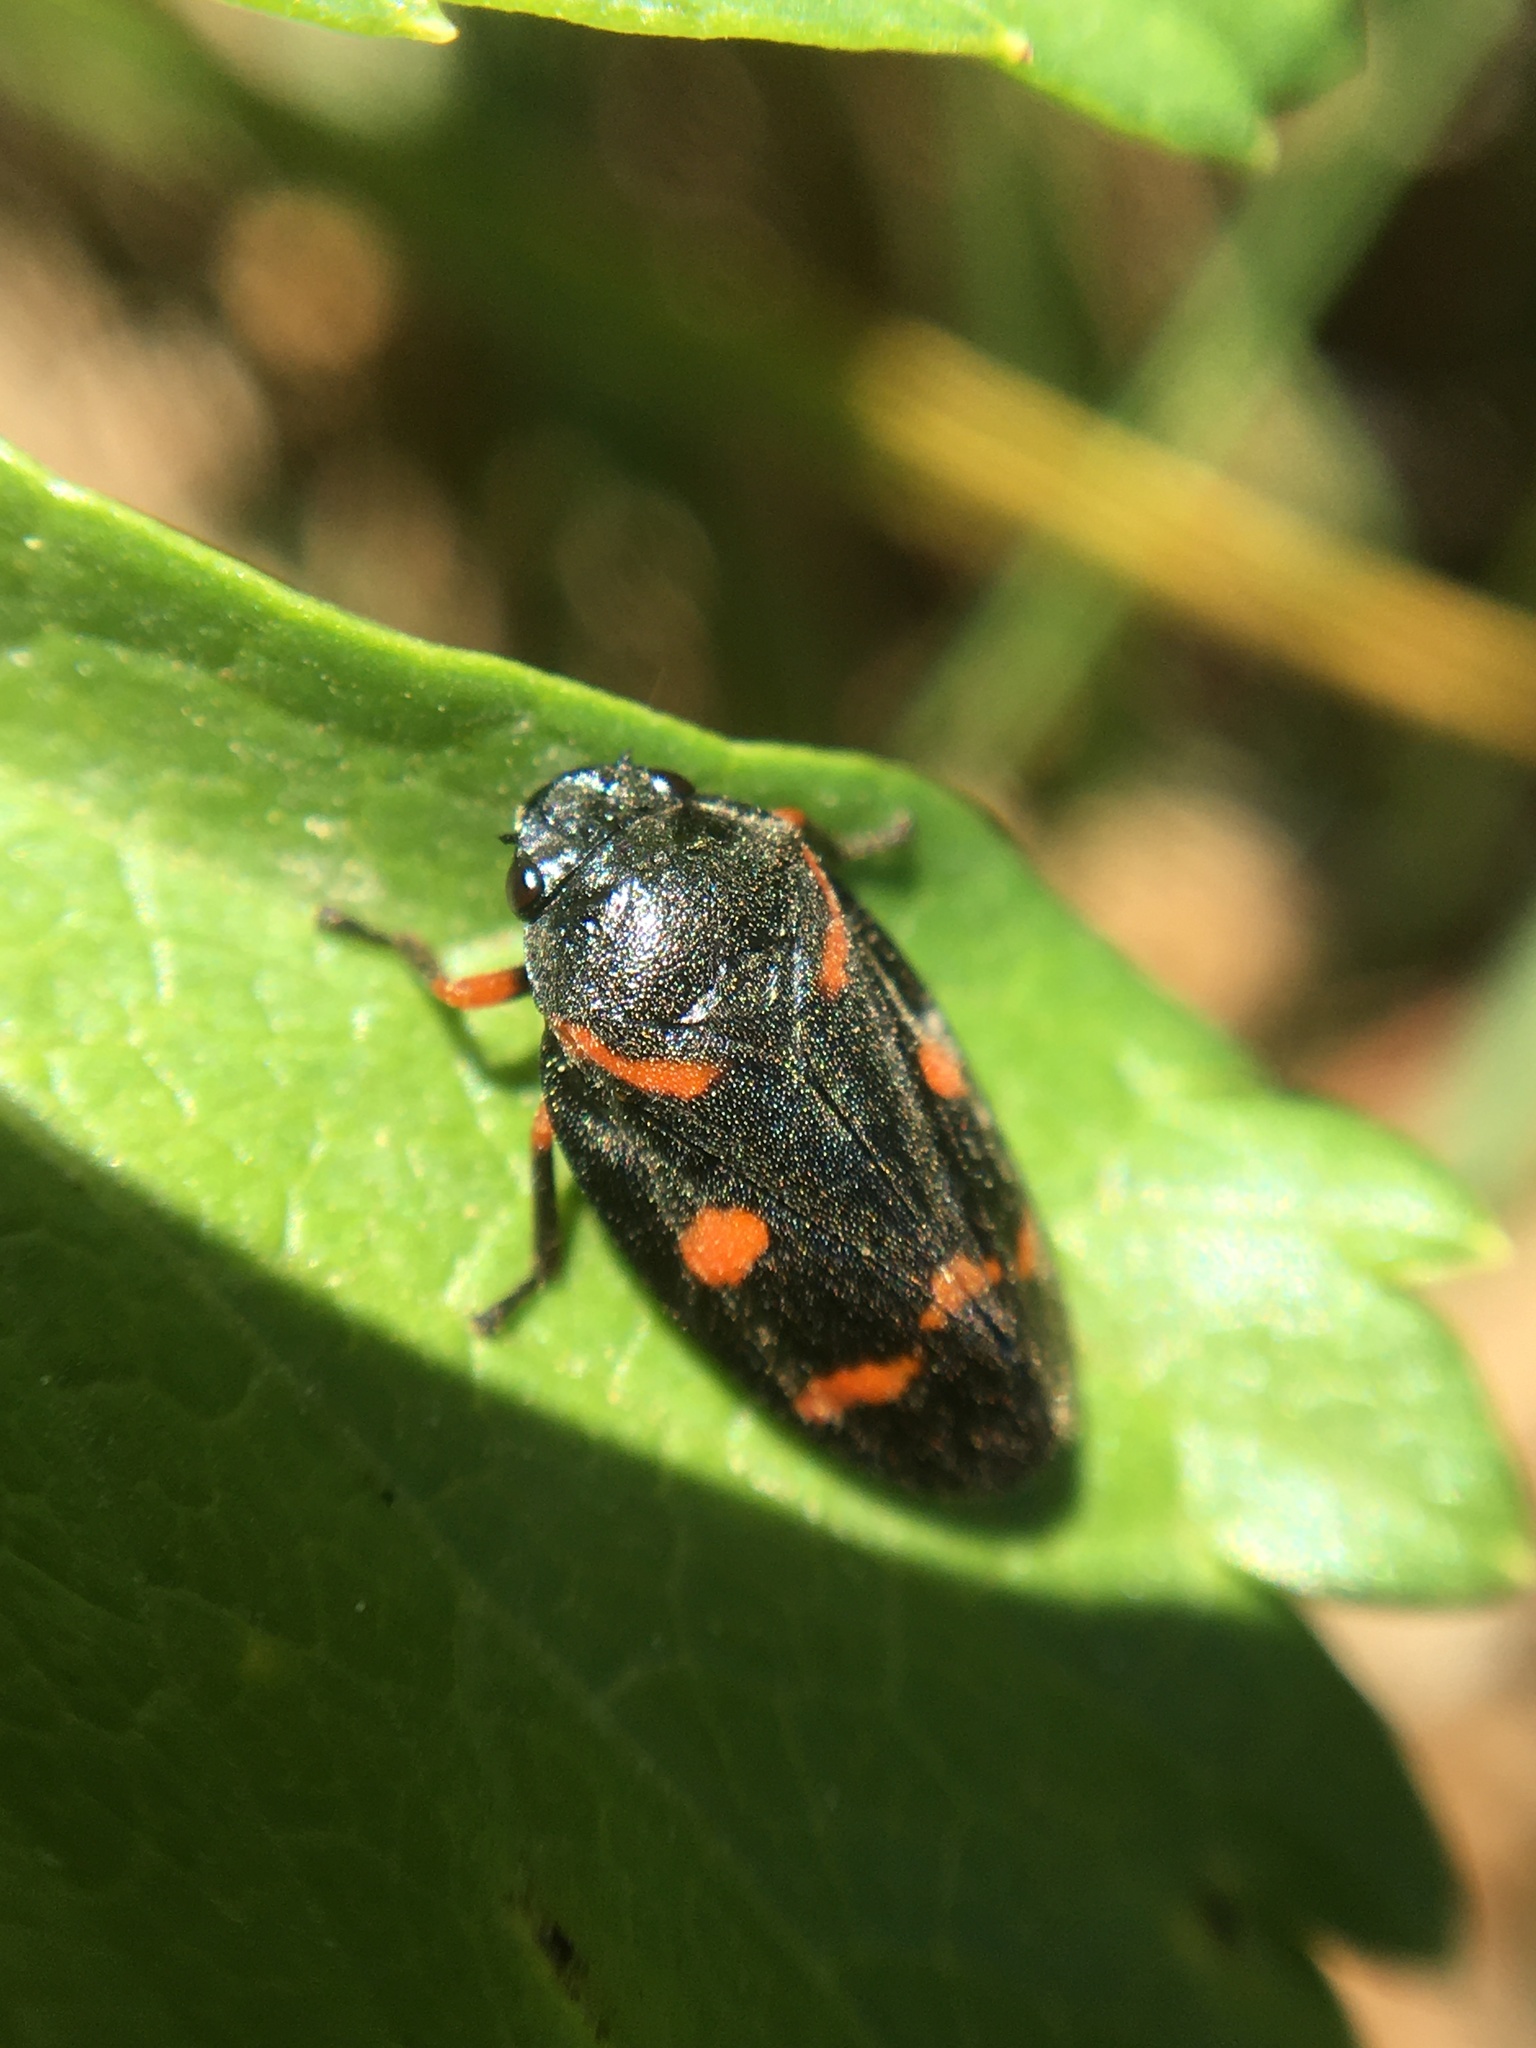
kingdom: Animalia
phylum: Arthropoda
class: Insecta
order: Hemiptera
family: Cercopidae
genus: Cercopis
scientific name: Cercopis intermedia
